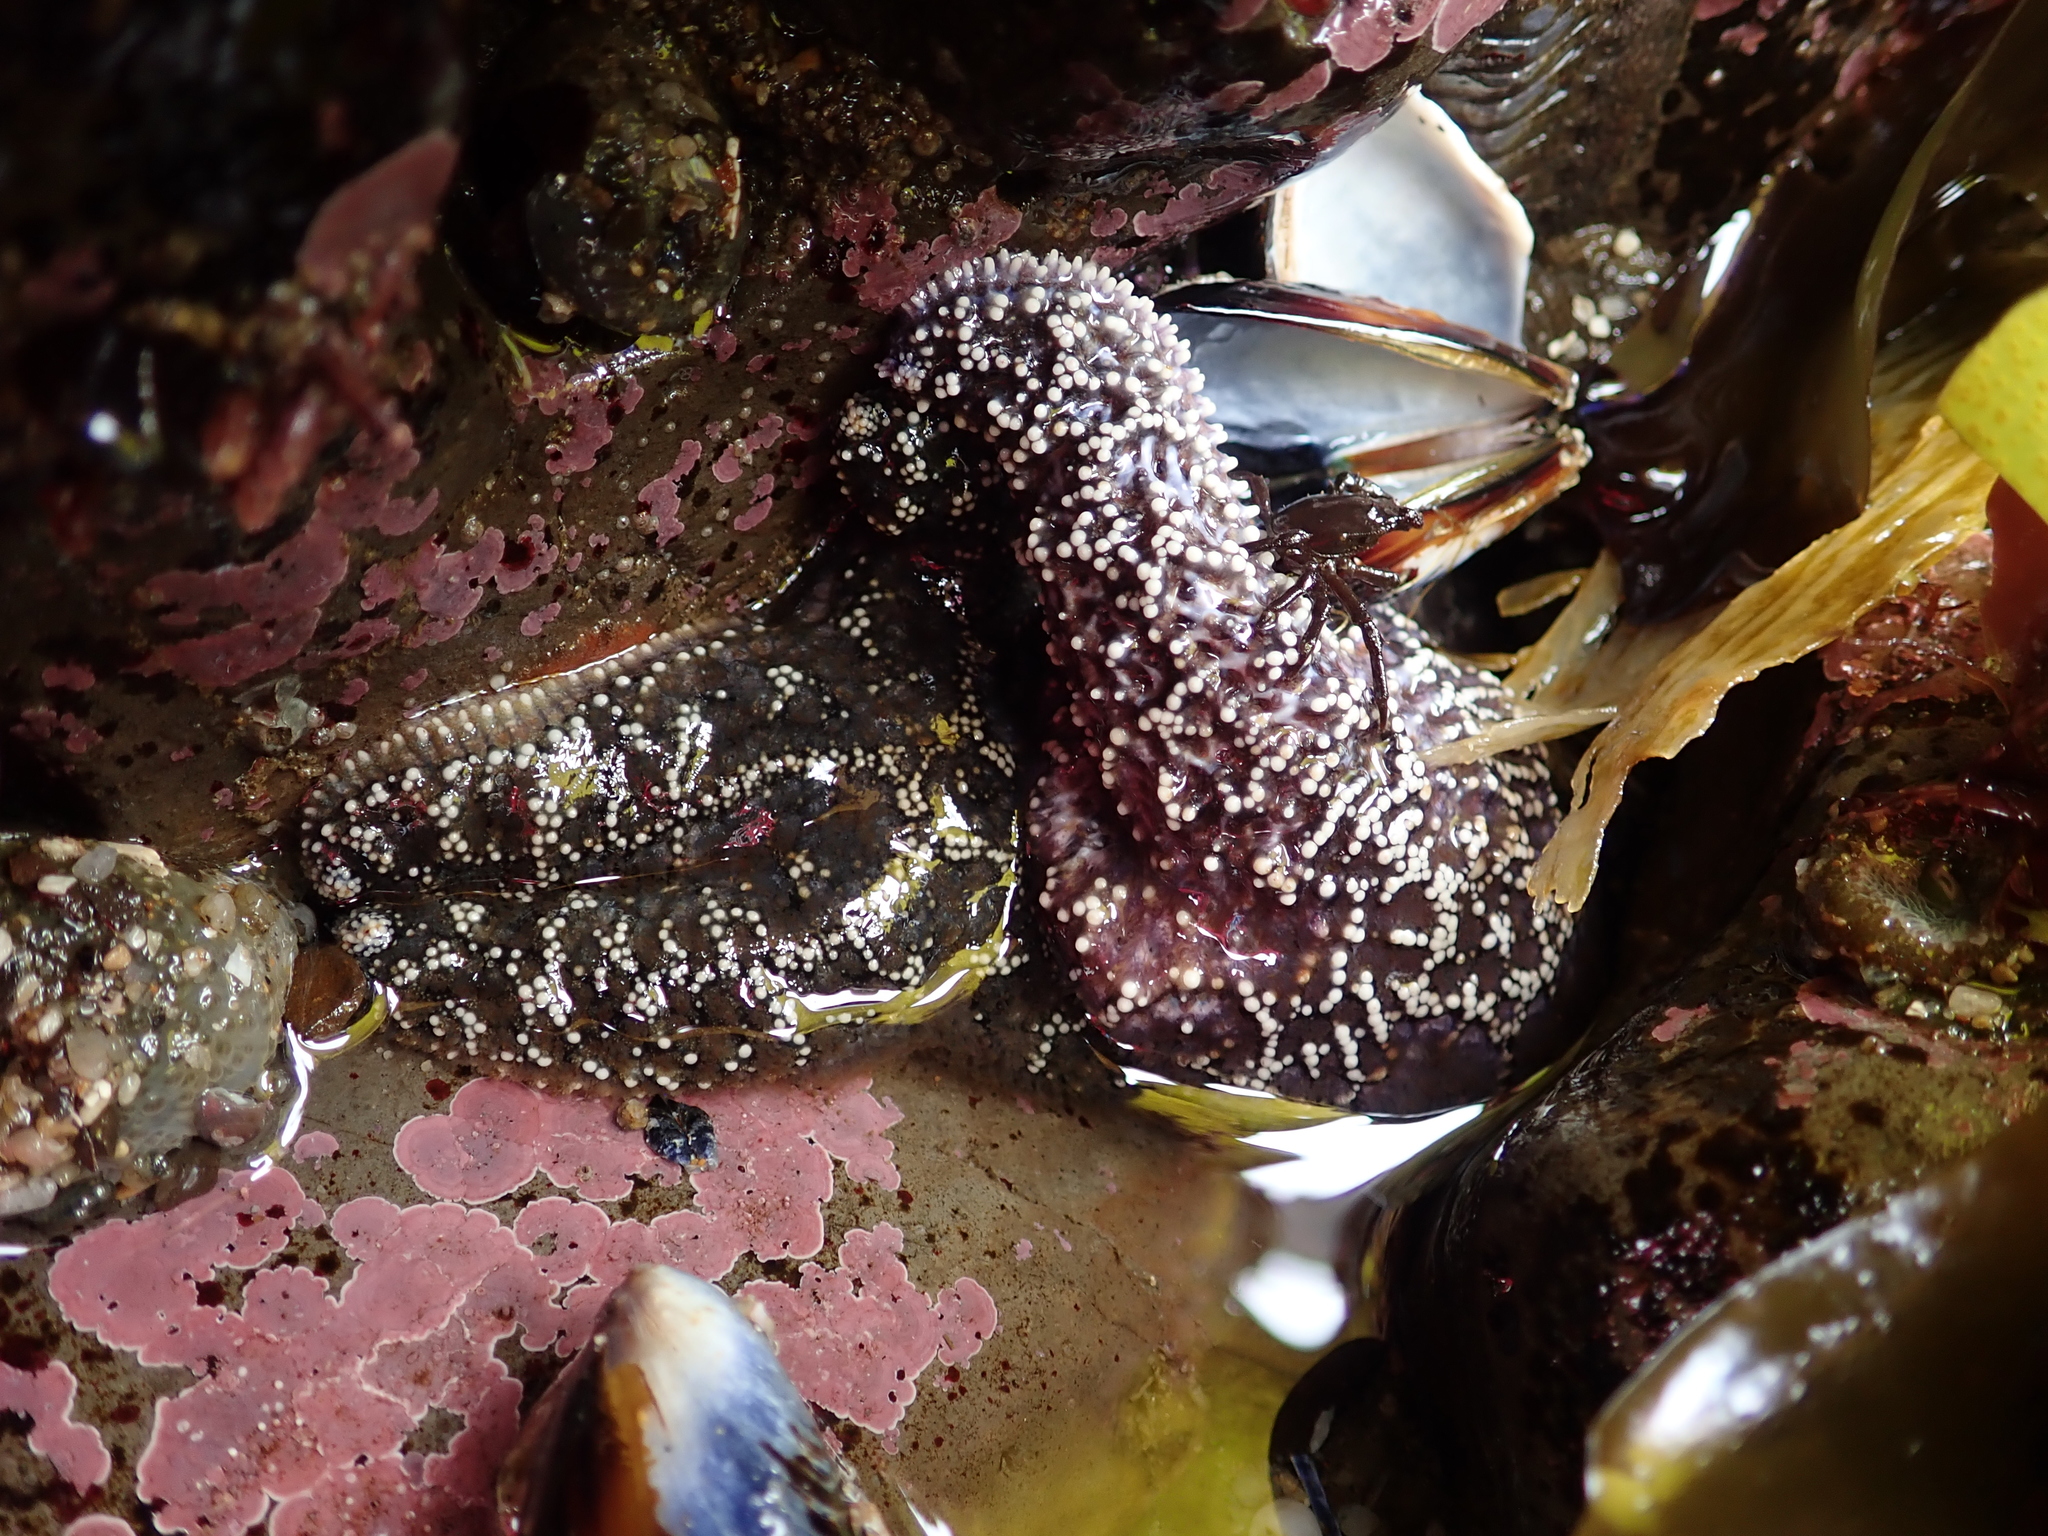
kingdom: Animalia
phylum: Echinodermata
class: Asteroidea
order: Forcipulatida
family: Asteriidae
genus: Pisaster
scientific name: Pisaster ochraceus
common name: Ochre stars
